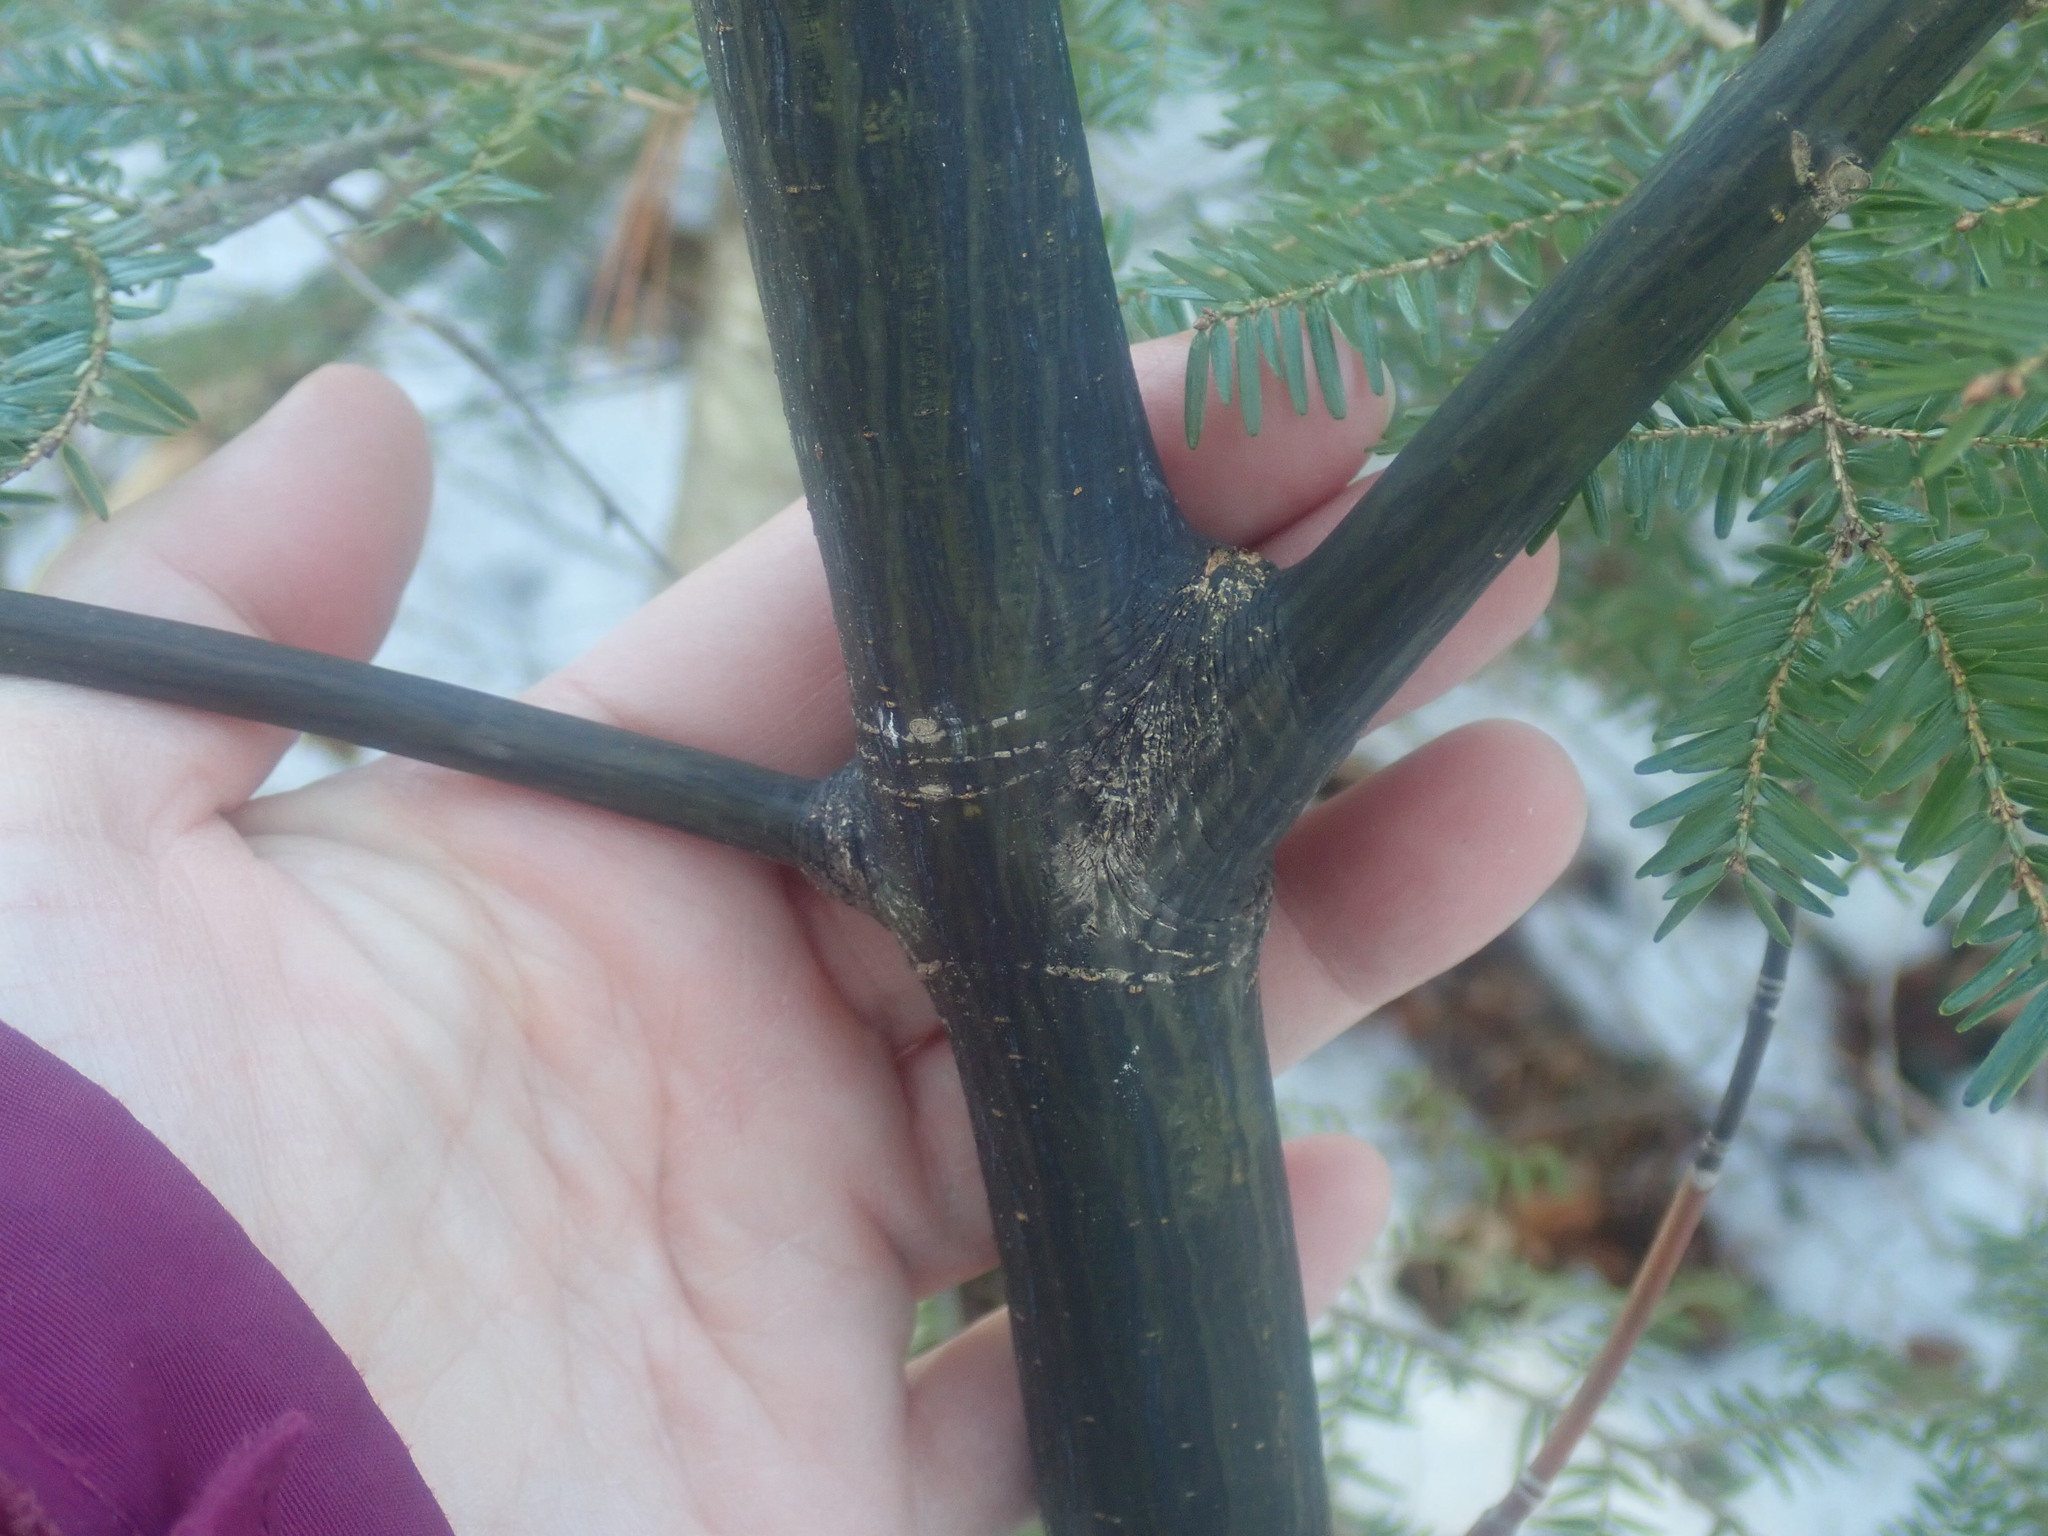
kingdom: Plantae
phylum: Tracheophyta
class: Magnoliopsida
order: Sapindales
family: Sapindaceae
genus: Acer
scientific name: Acer pensylvanicum
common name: Moosewood
